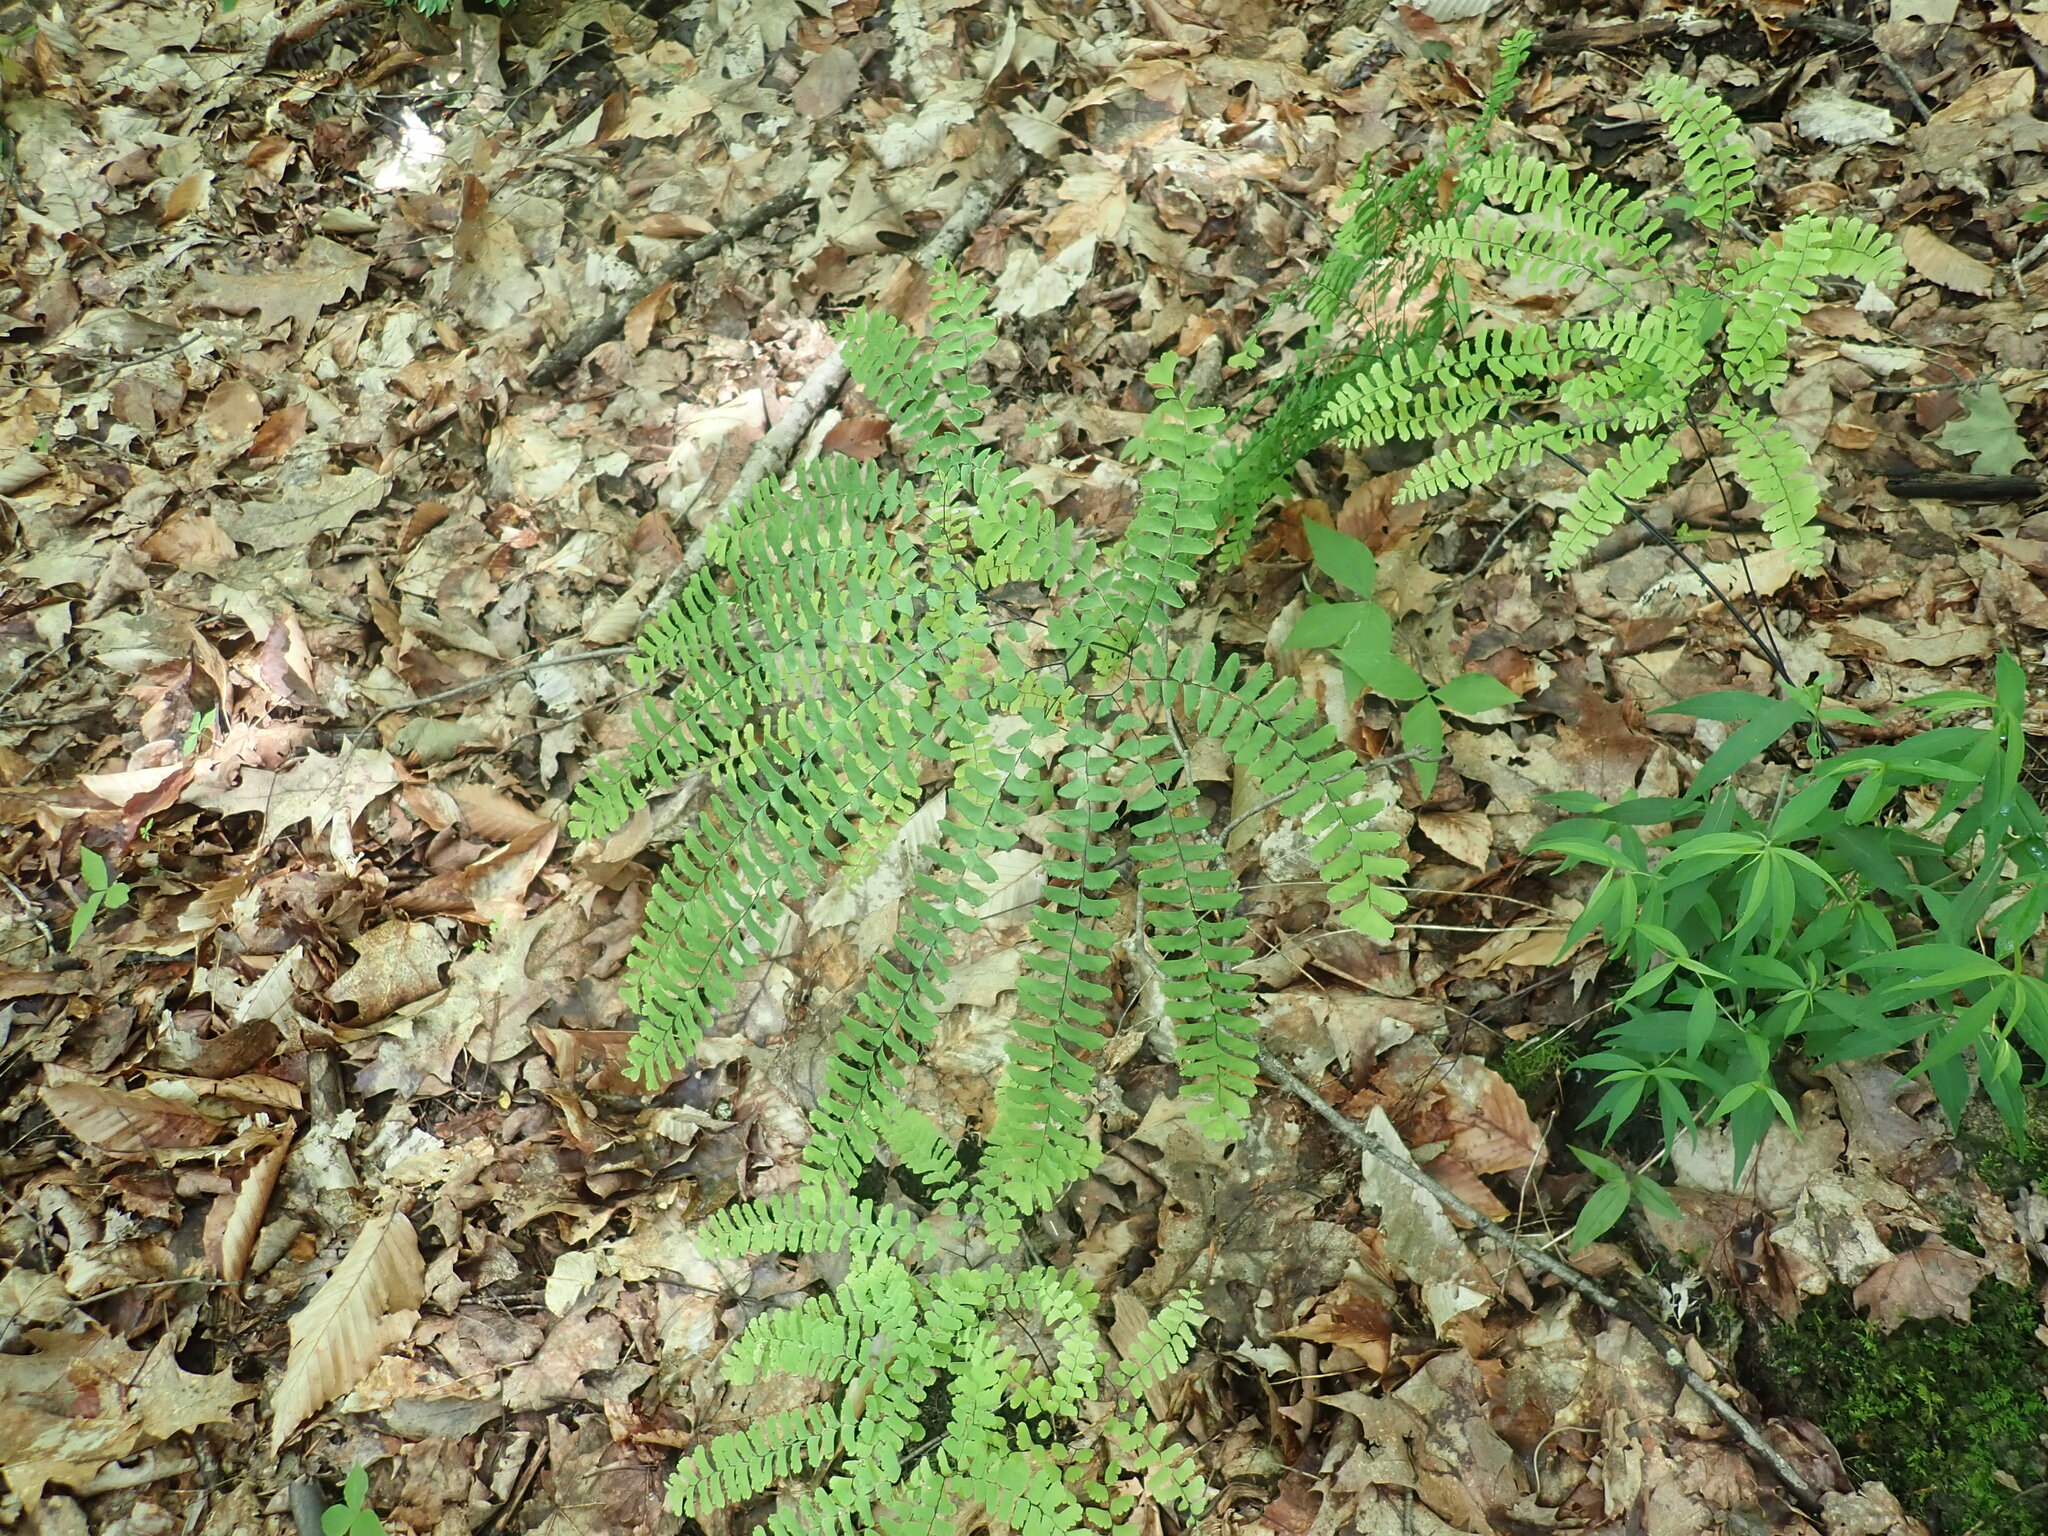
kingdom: Plantae
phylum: Tracheophyta
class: Polypodiopsida
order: Polypodiales
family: Pteridaceae
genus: Adiantum
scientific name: Adiantum pedatum
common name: Five-finger fern
